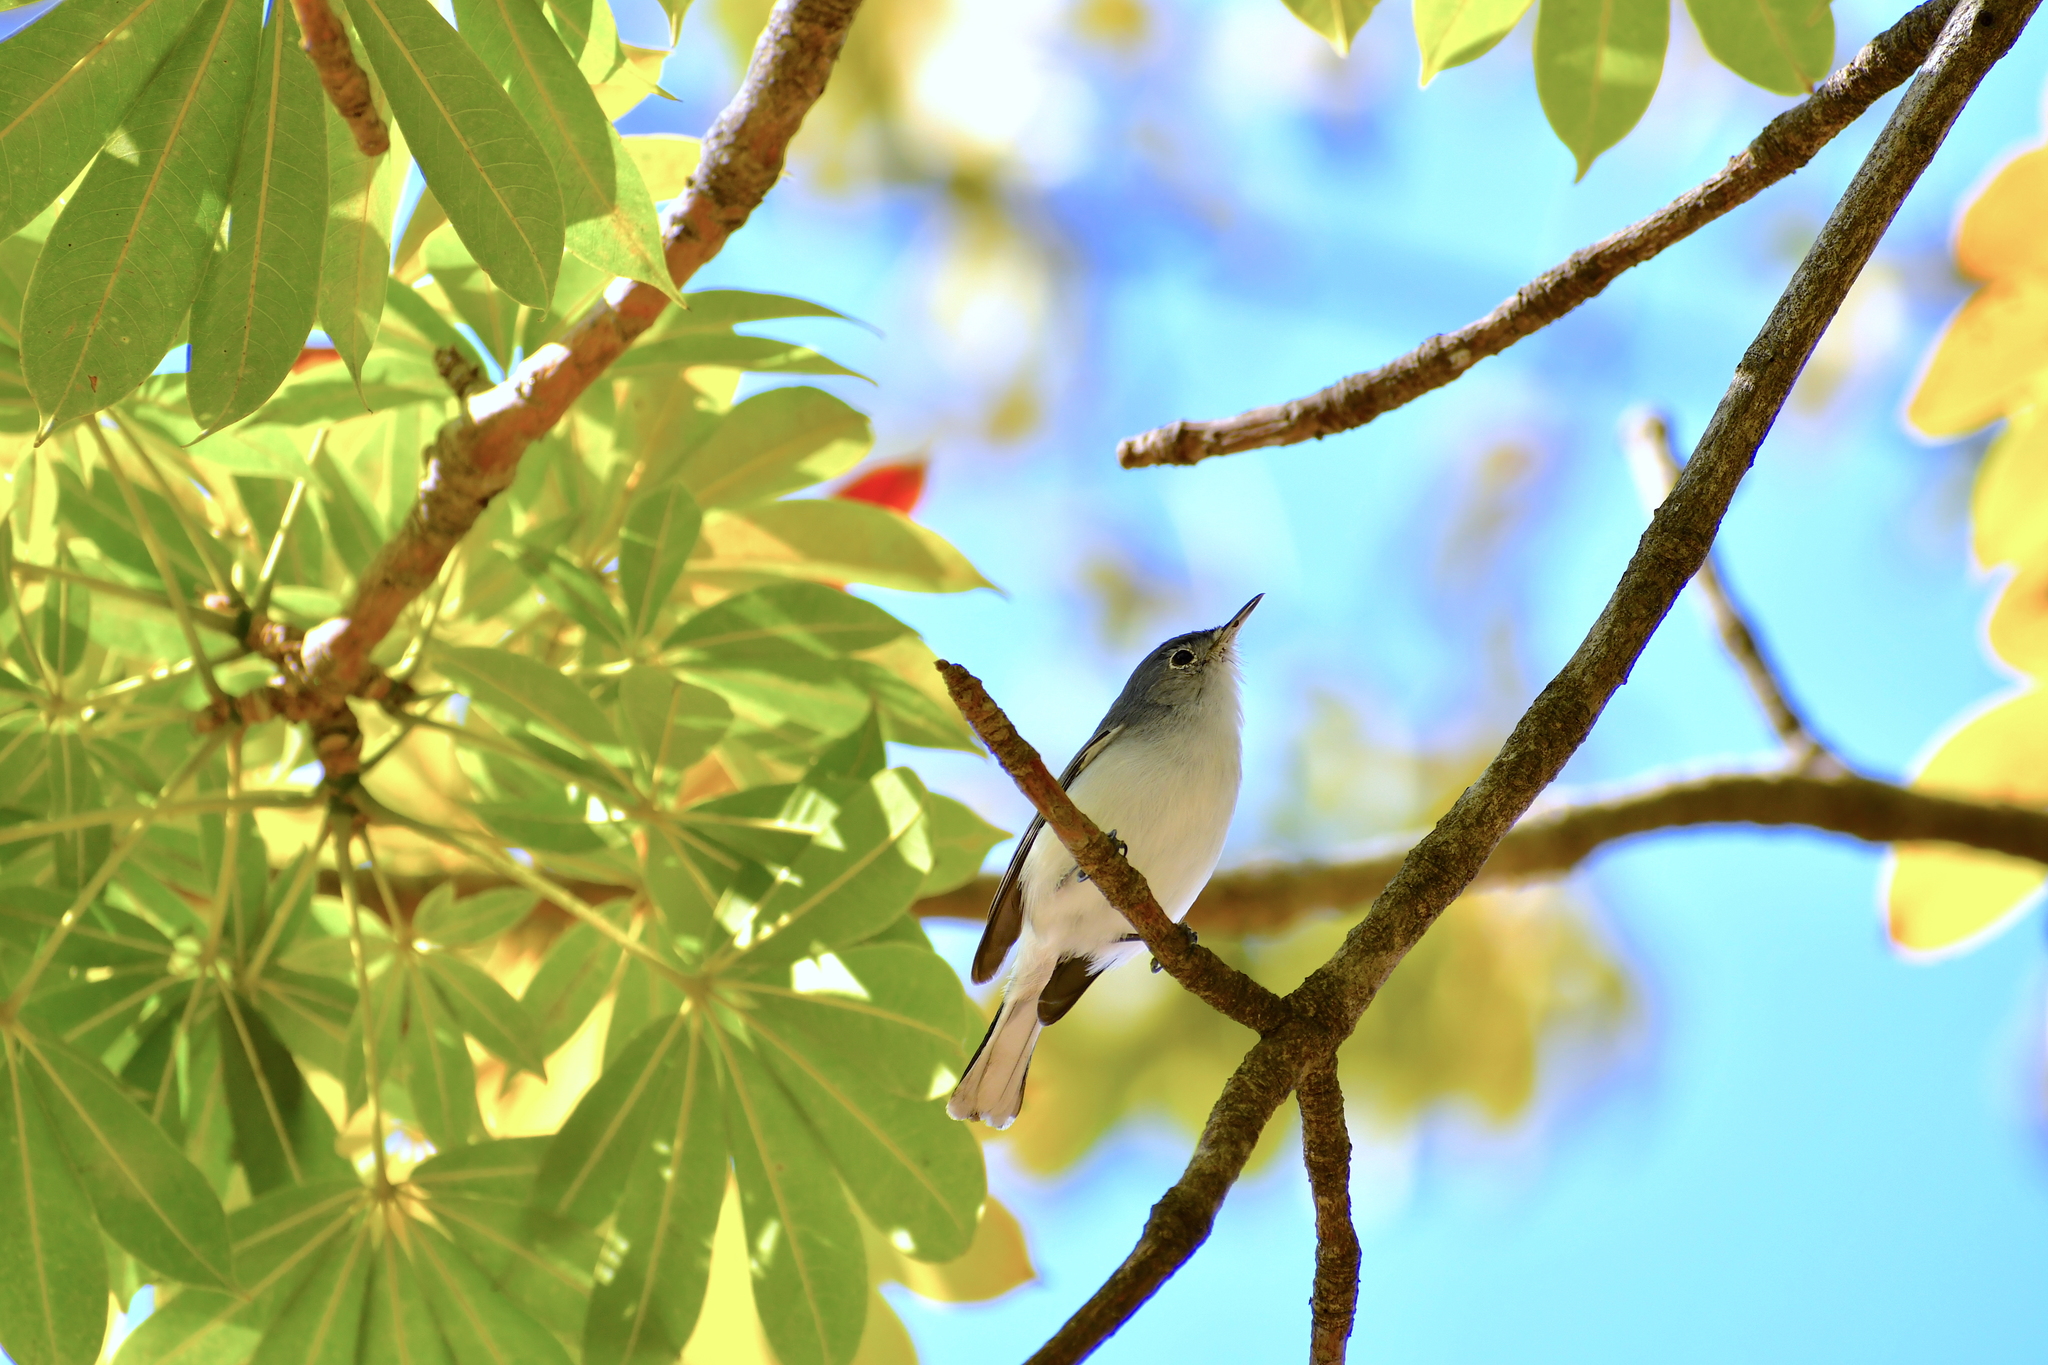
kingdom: Animalia
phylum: Chordata
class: Aves
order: Passeriformes
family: Polioptilidae
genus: Polioptila
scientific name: Polioptila caerulea
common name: Blue-gray gnatcatcher
